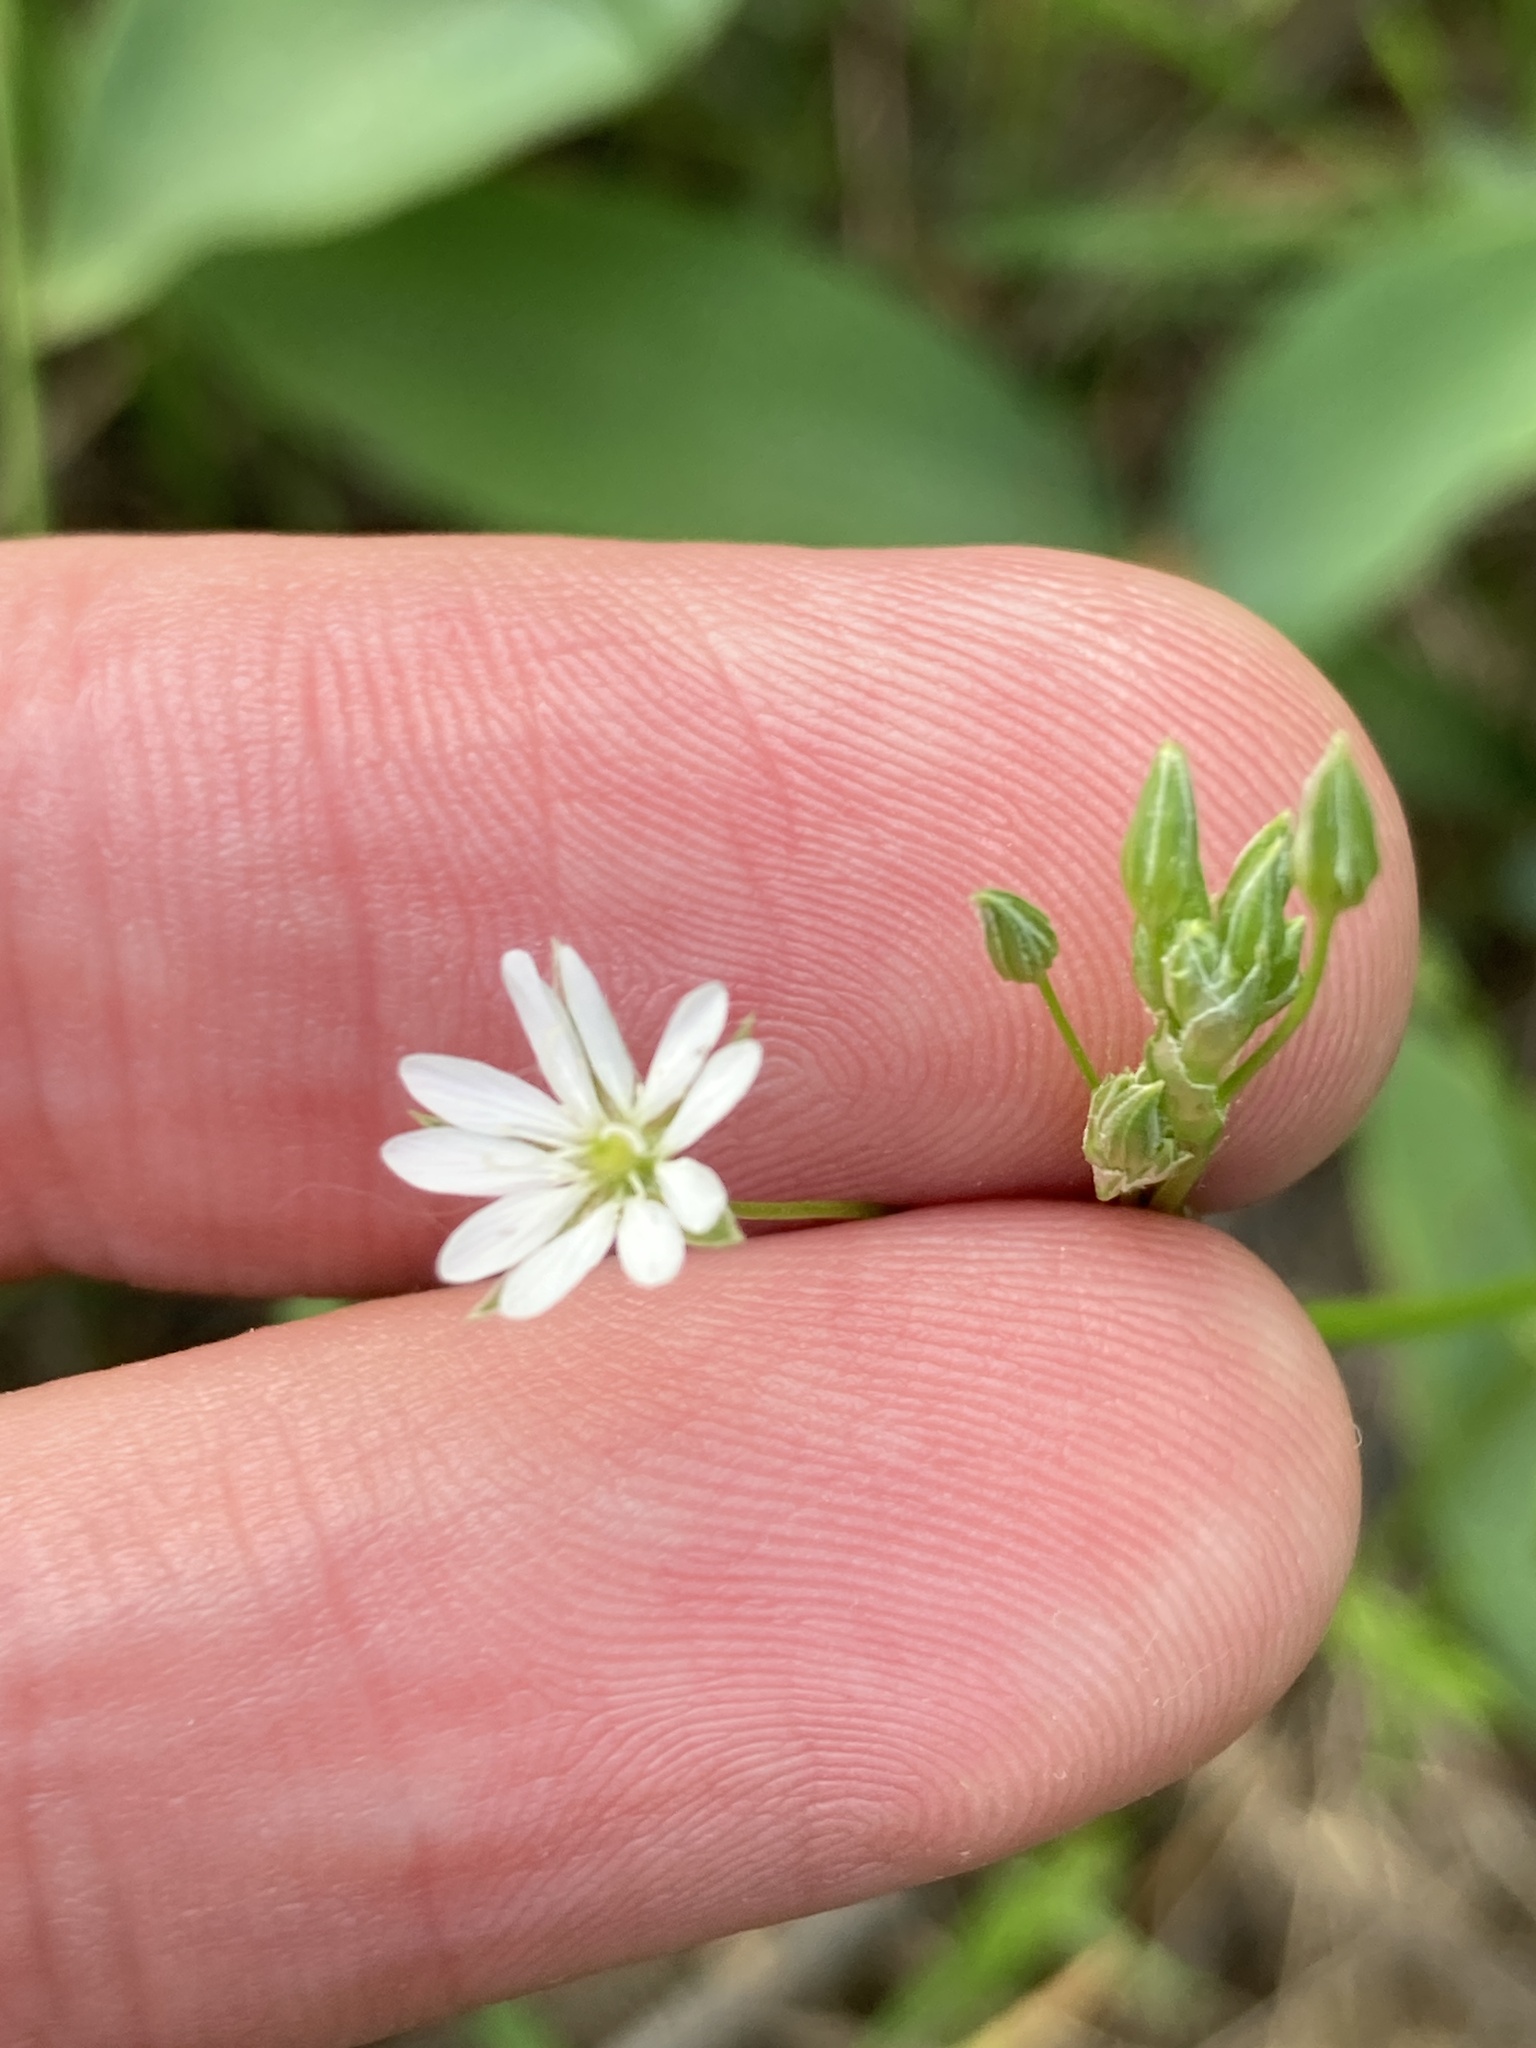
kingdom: Plantae
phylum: Tracheophyta
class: Magnoliopsida
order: Caryophyllales
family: Caryophyllaceae
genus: Stellaria
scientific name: Stellaria graminea
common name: Grass-like starwort
